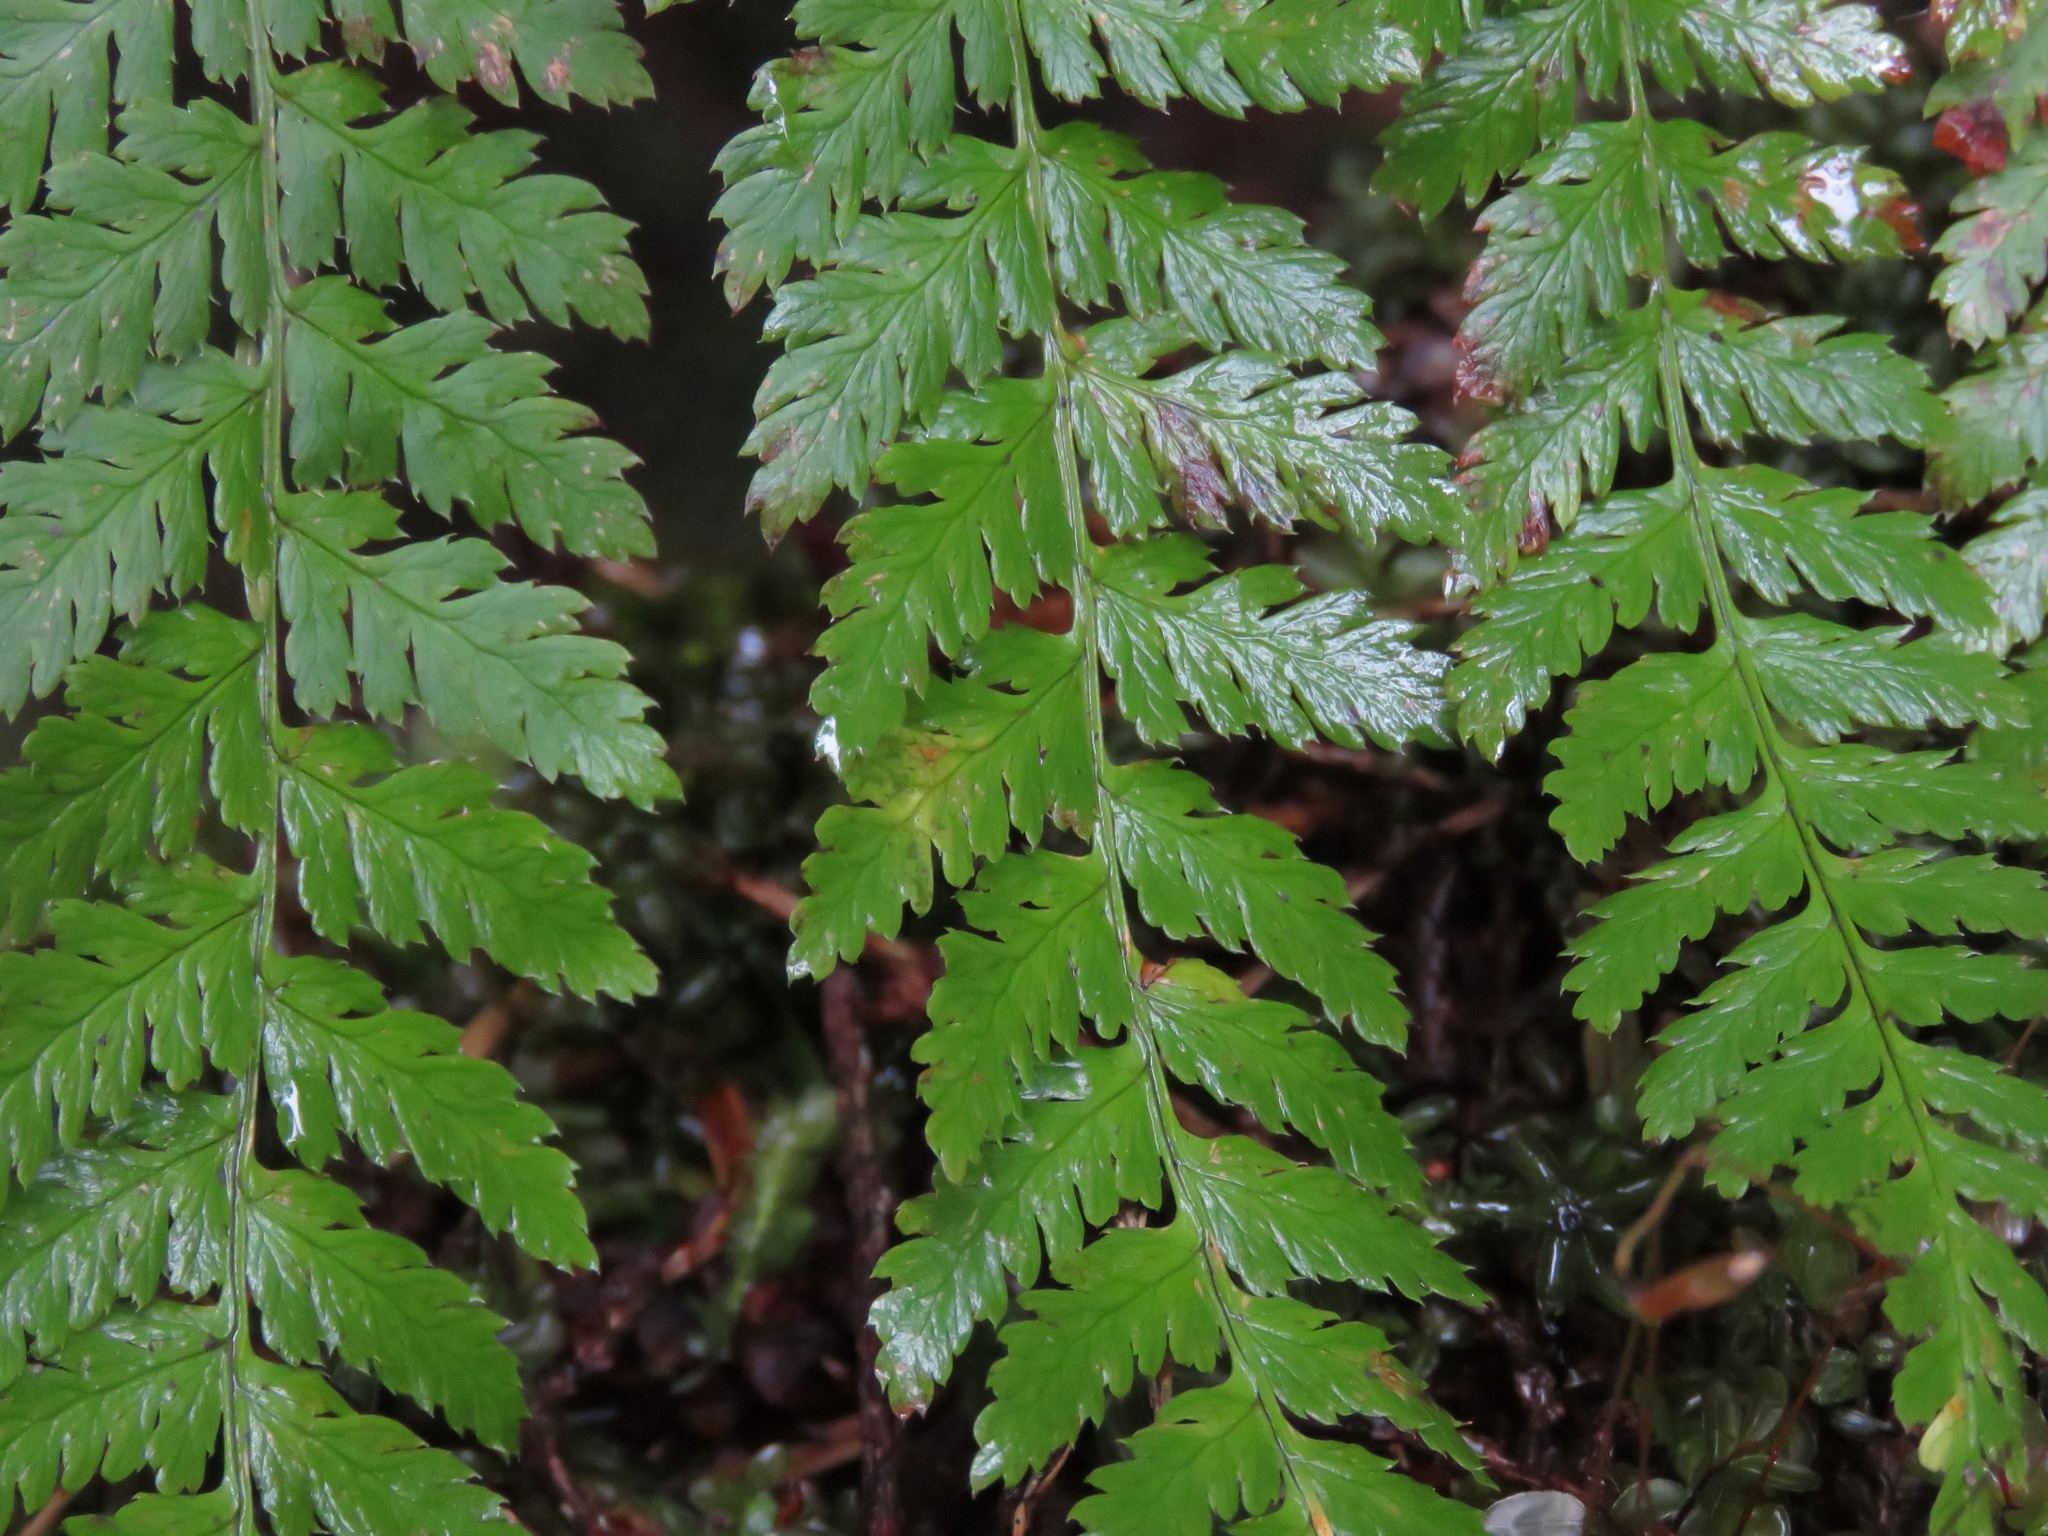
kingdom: Plantae
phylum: Tracheophyta
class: Polypodiopsida
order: Polypodiales
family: Dryopteridaceae
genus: Dryopteris
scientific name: Dryopteris expansa
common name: Northern buckler fern
